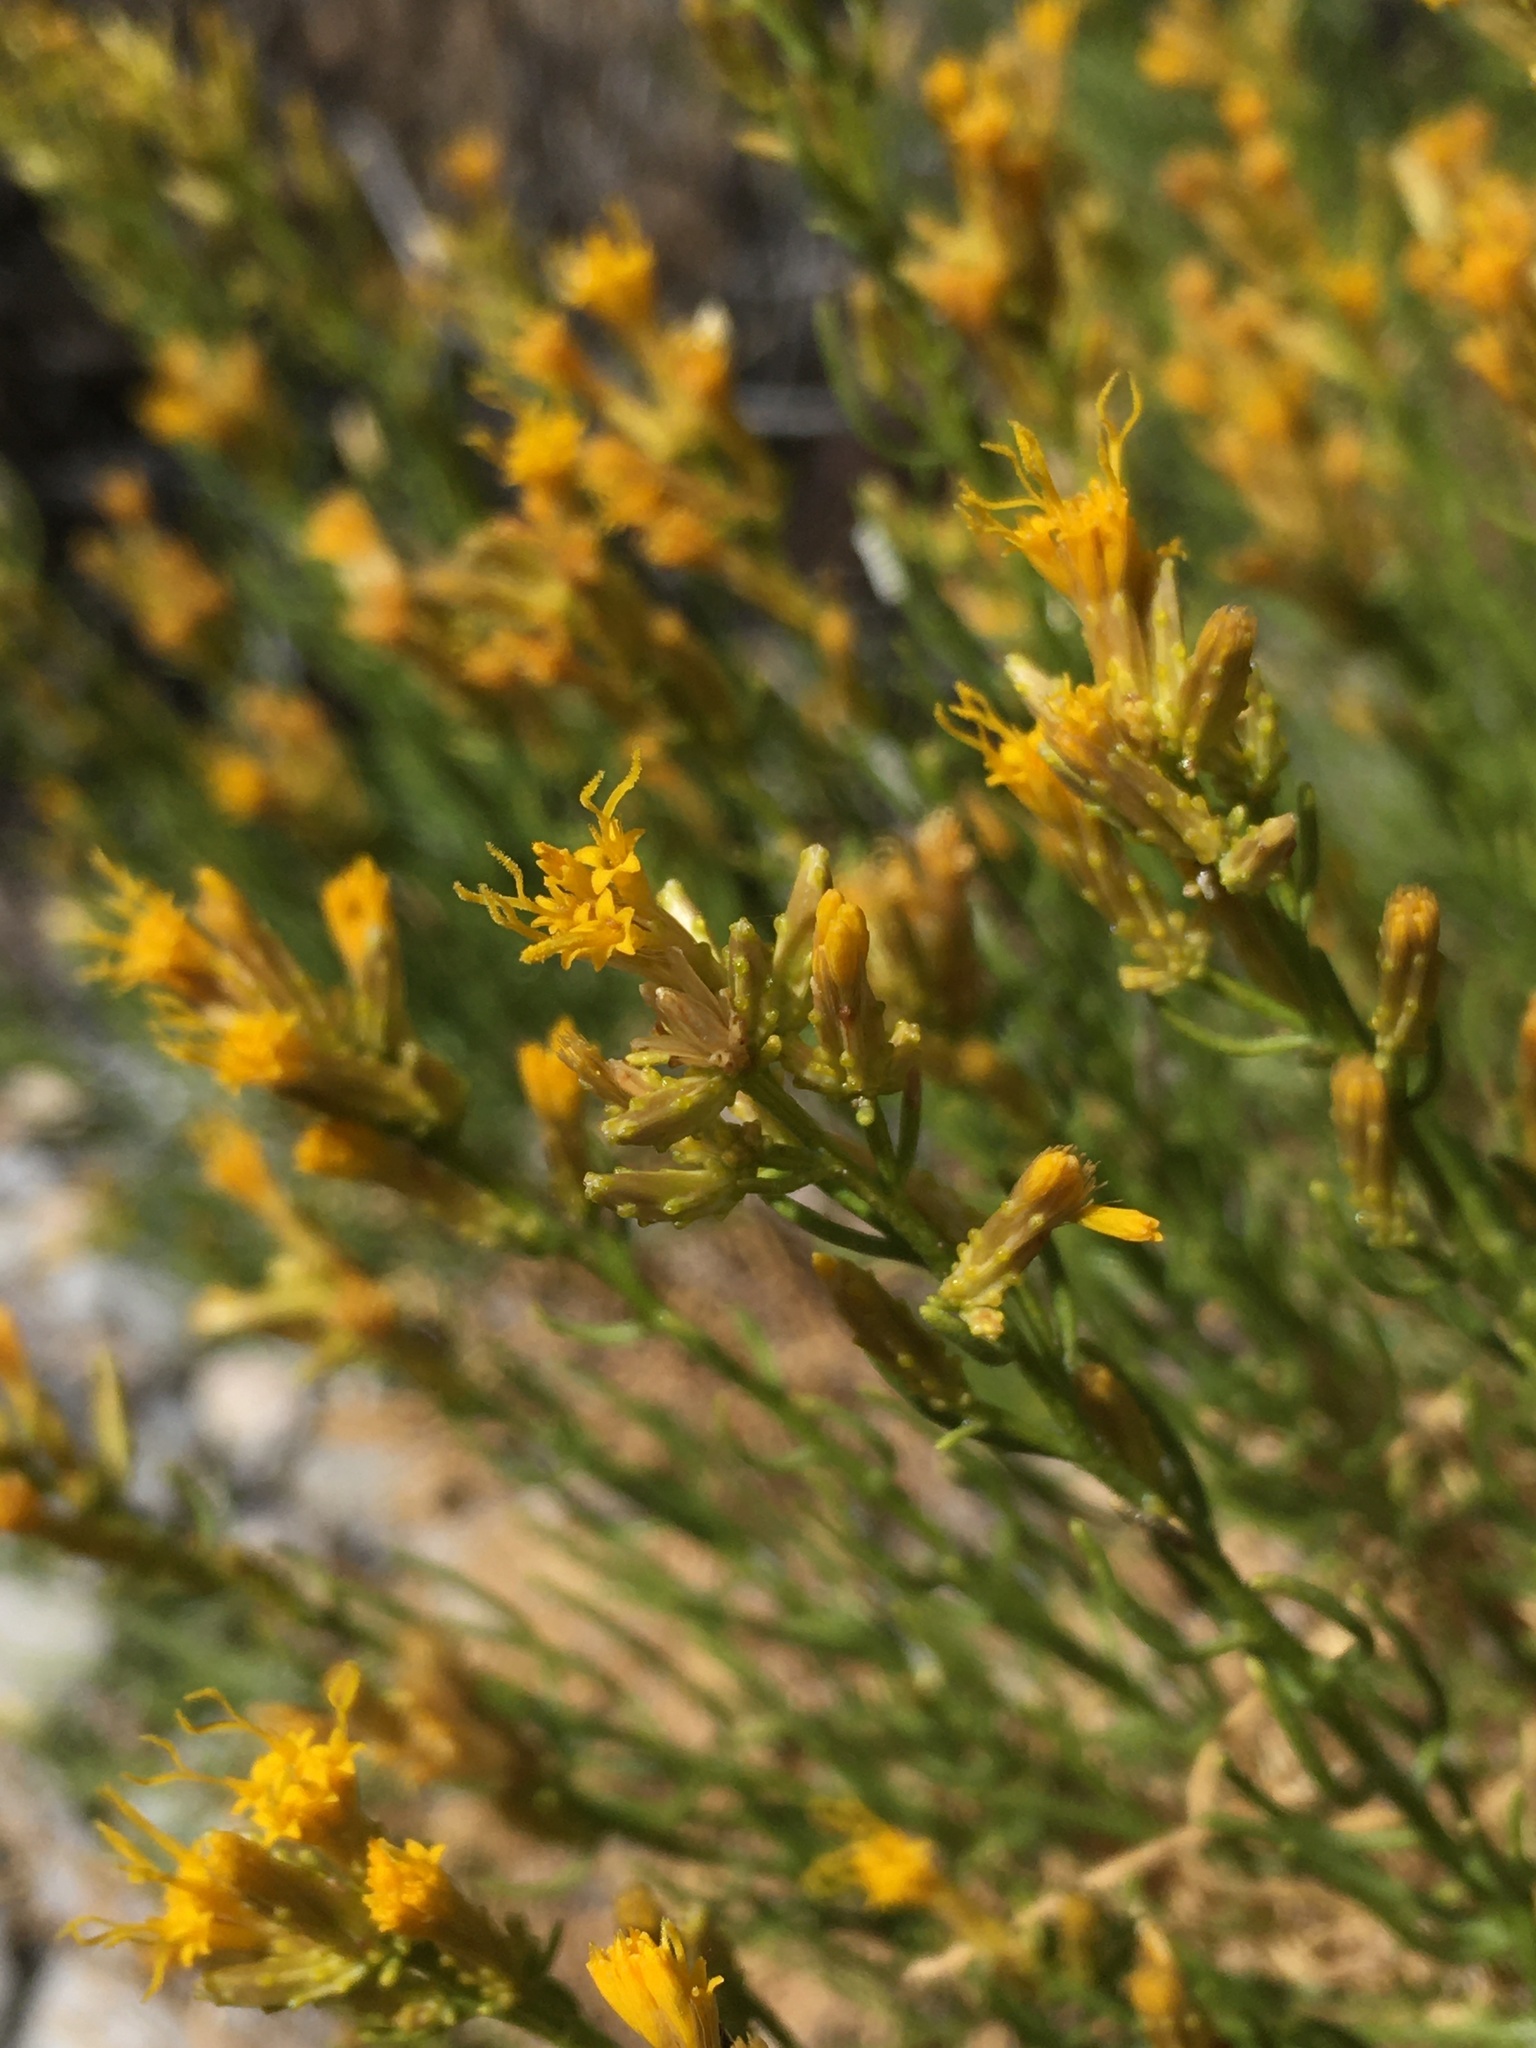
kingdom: Plantae
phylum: Tracheophyta
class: Magnoliopsida
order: Asterales
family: Asteraceae
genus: Ericameria
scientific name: Ericameria teretifolia
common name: Round-leaf rabbitbrush
